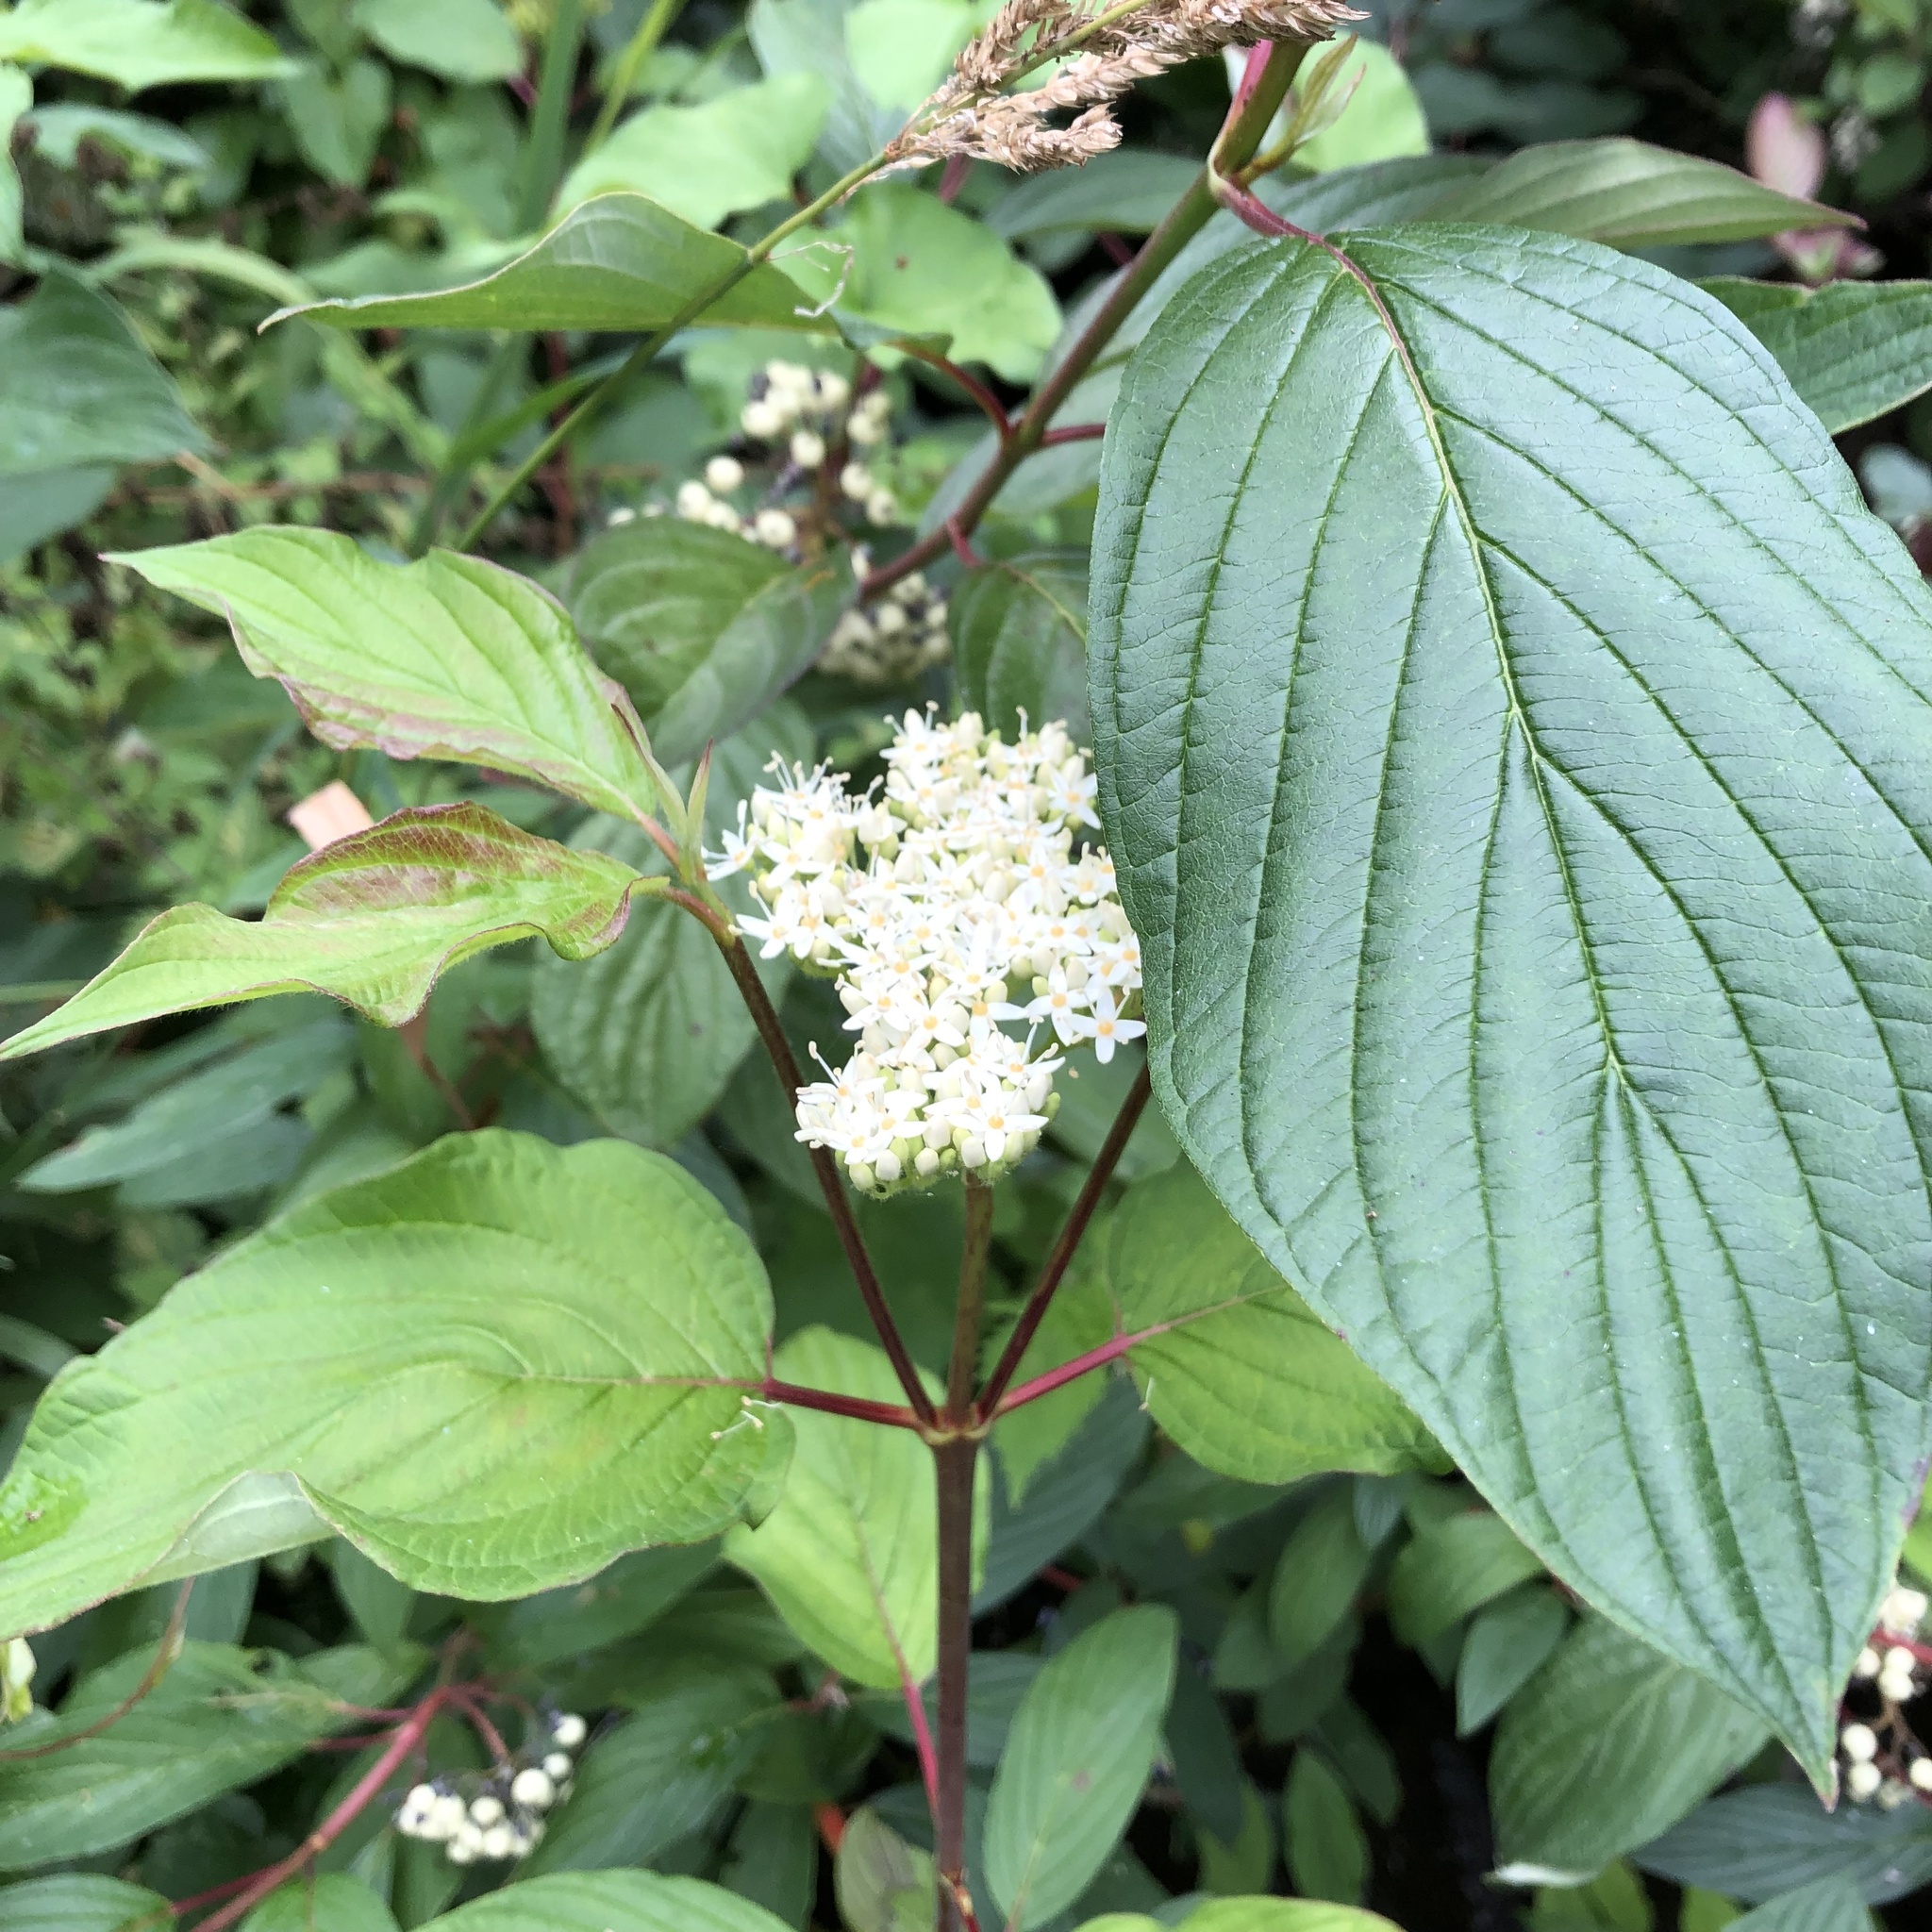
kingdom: Plantae
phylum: Tracheophyta
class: Magnoliopsida
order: Cornales
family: Cornaceae
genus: Cornus
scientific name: Cornus sericea
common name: Red-osier dogwood
